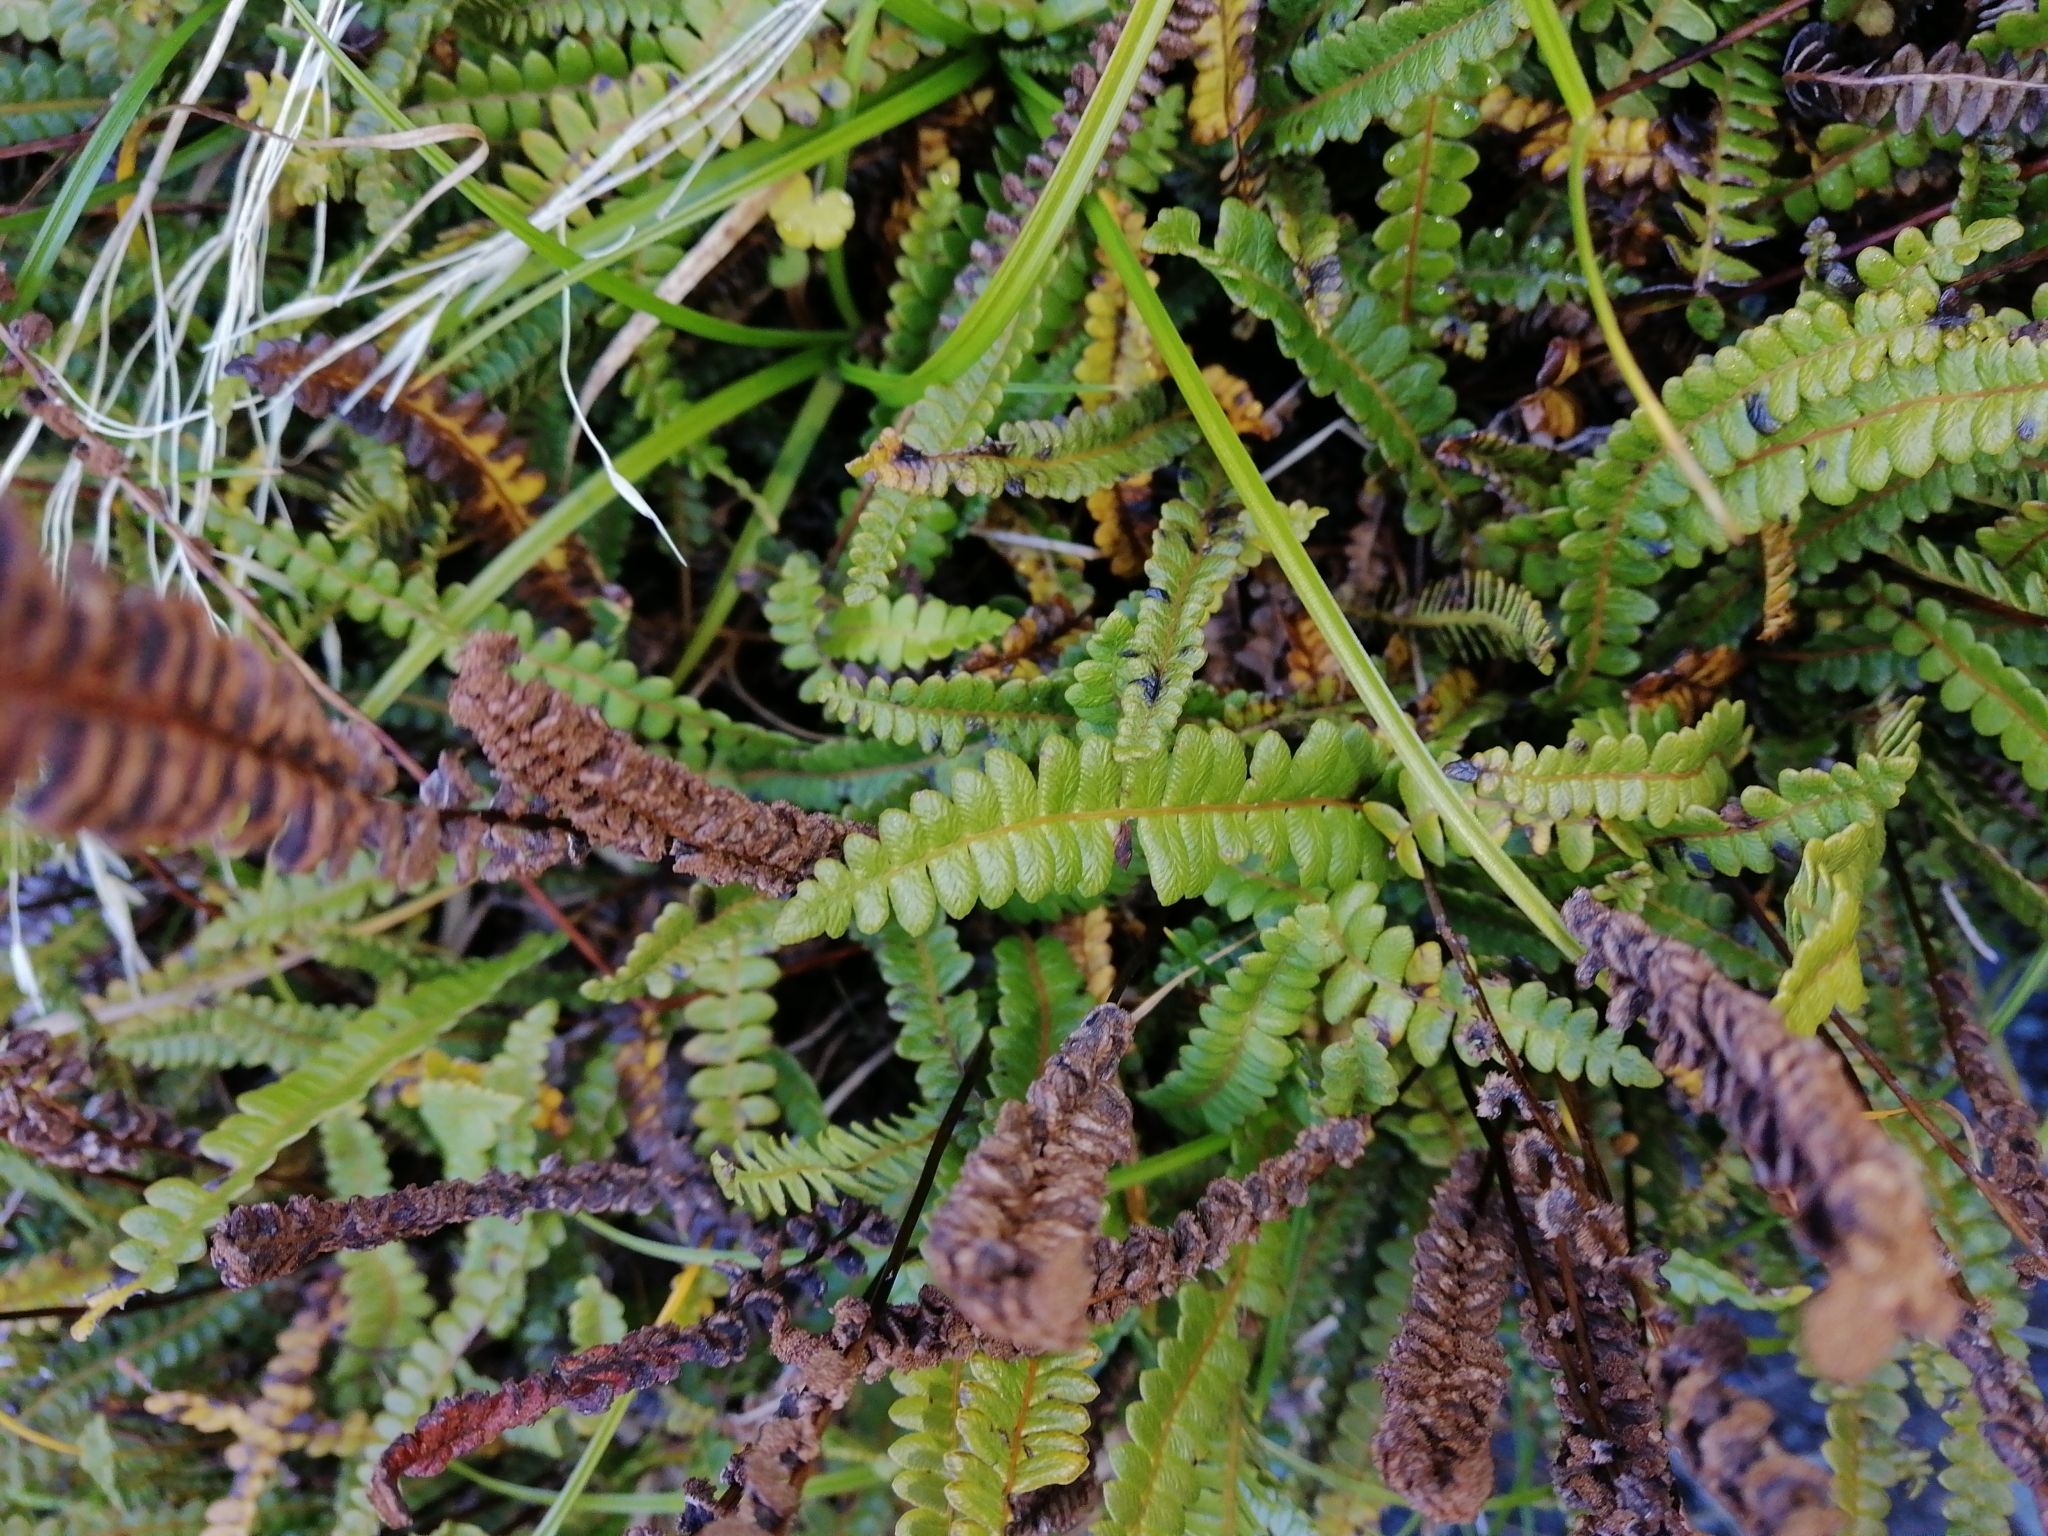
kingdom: Plantae
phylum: Tracheophyta
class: Polypodiopsida
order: Polypodiales
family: Blechnaceae
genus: Austroblechnum
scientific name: Austroblechnum penna-marina
